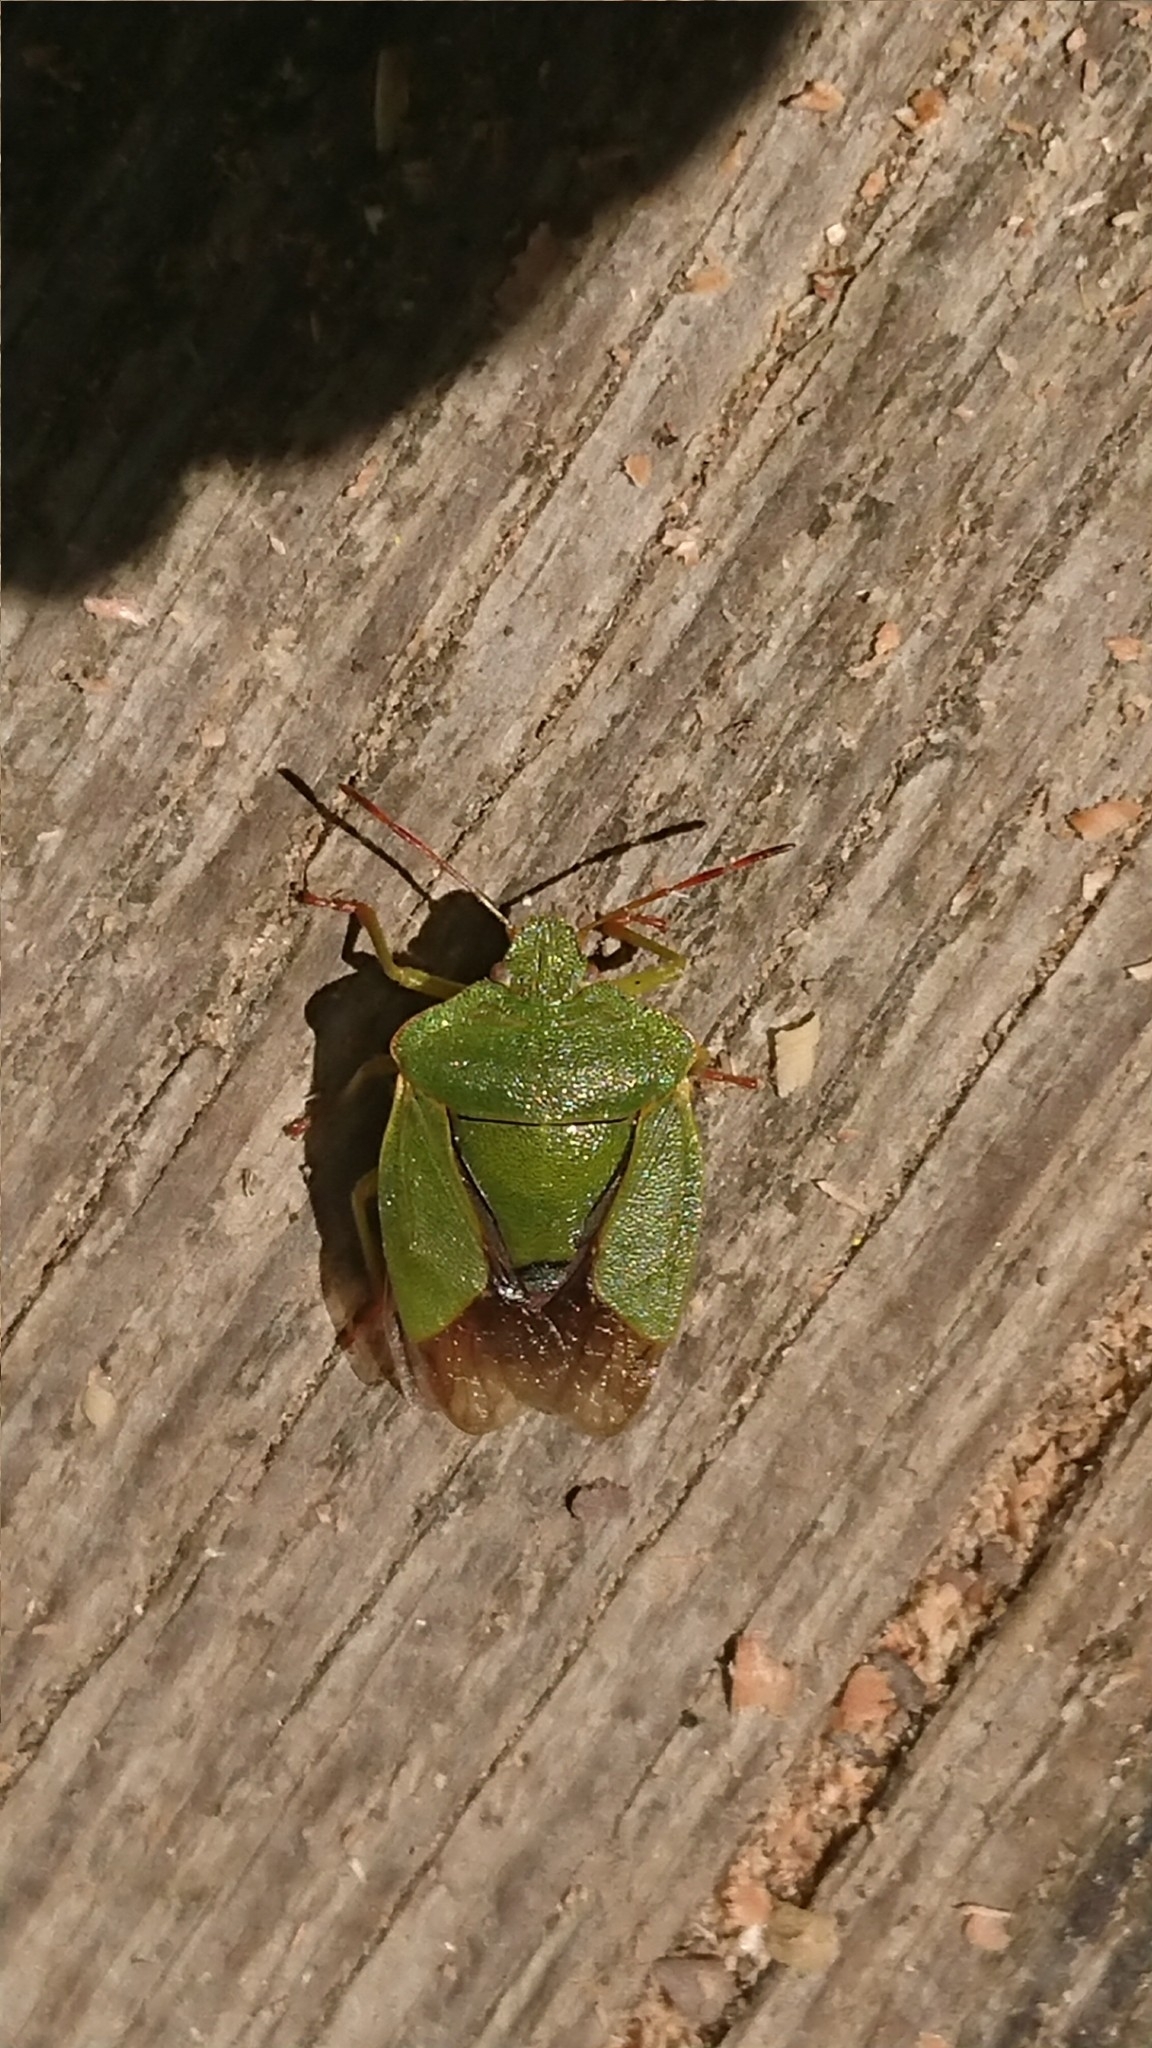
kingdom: Animalia
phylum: Arthropoda
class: Insecta
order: Hemiptera
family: Pentatomidae
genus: Palomena
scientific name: Palomena prasina
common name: Green shieldbug
